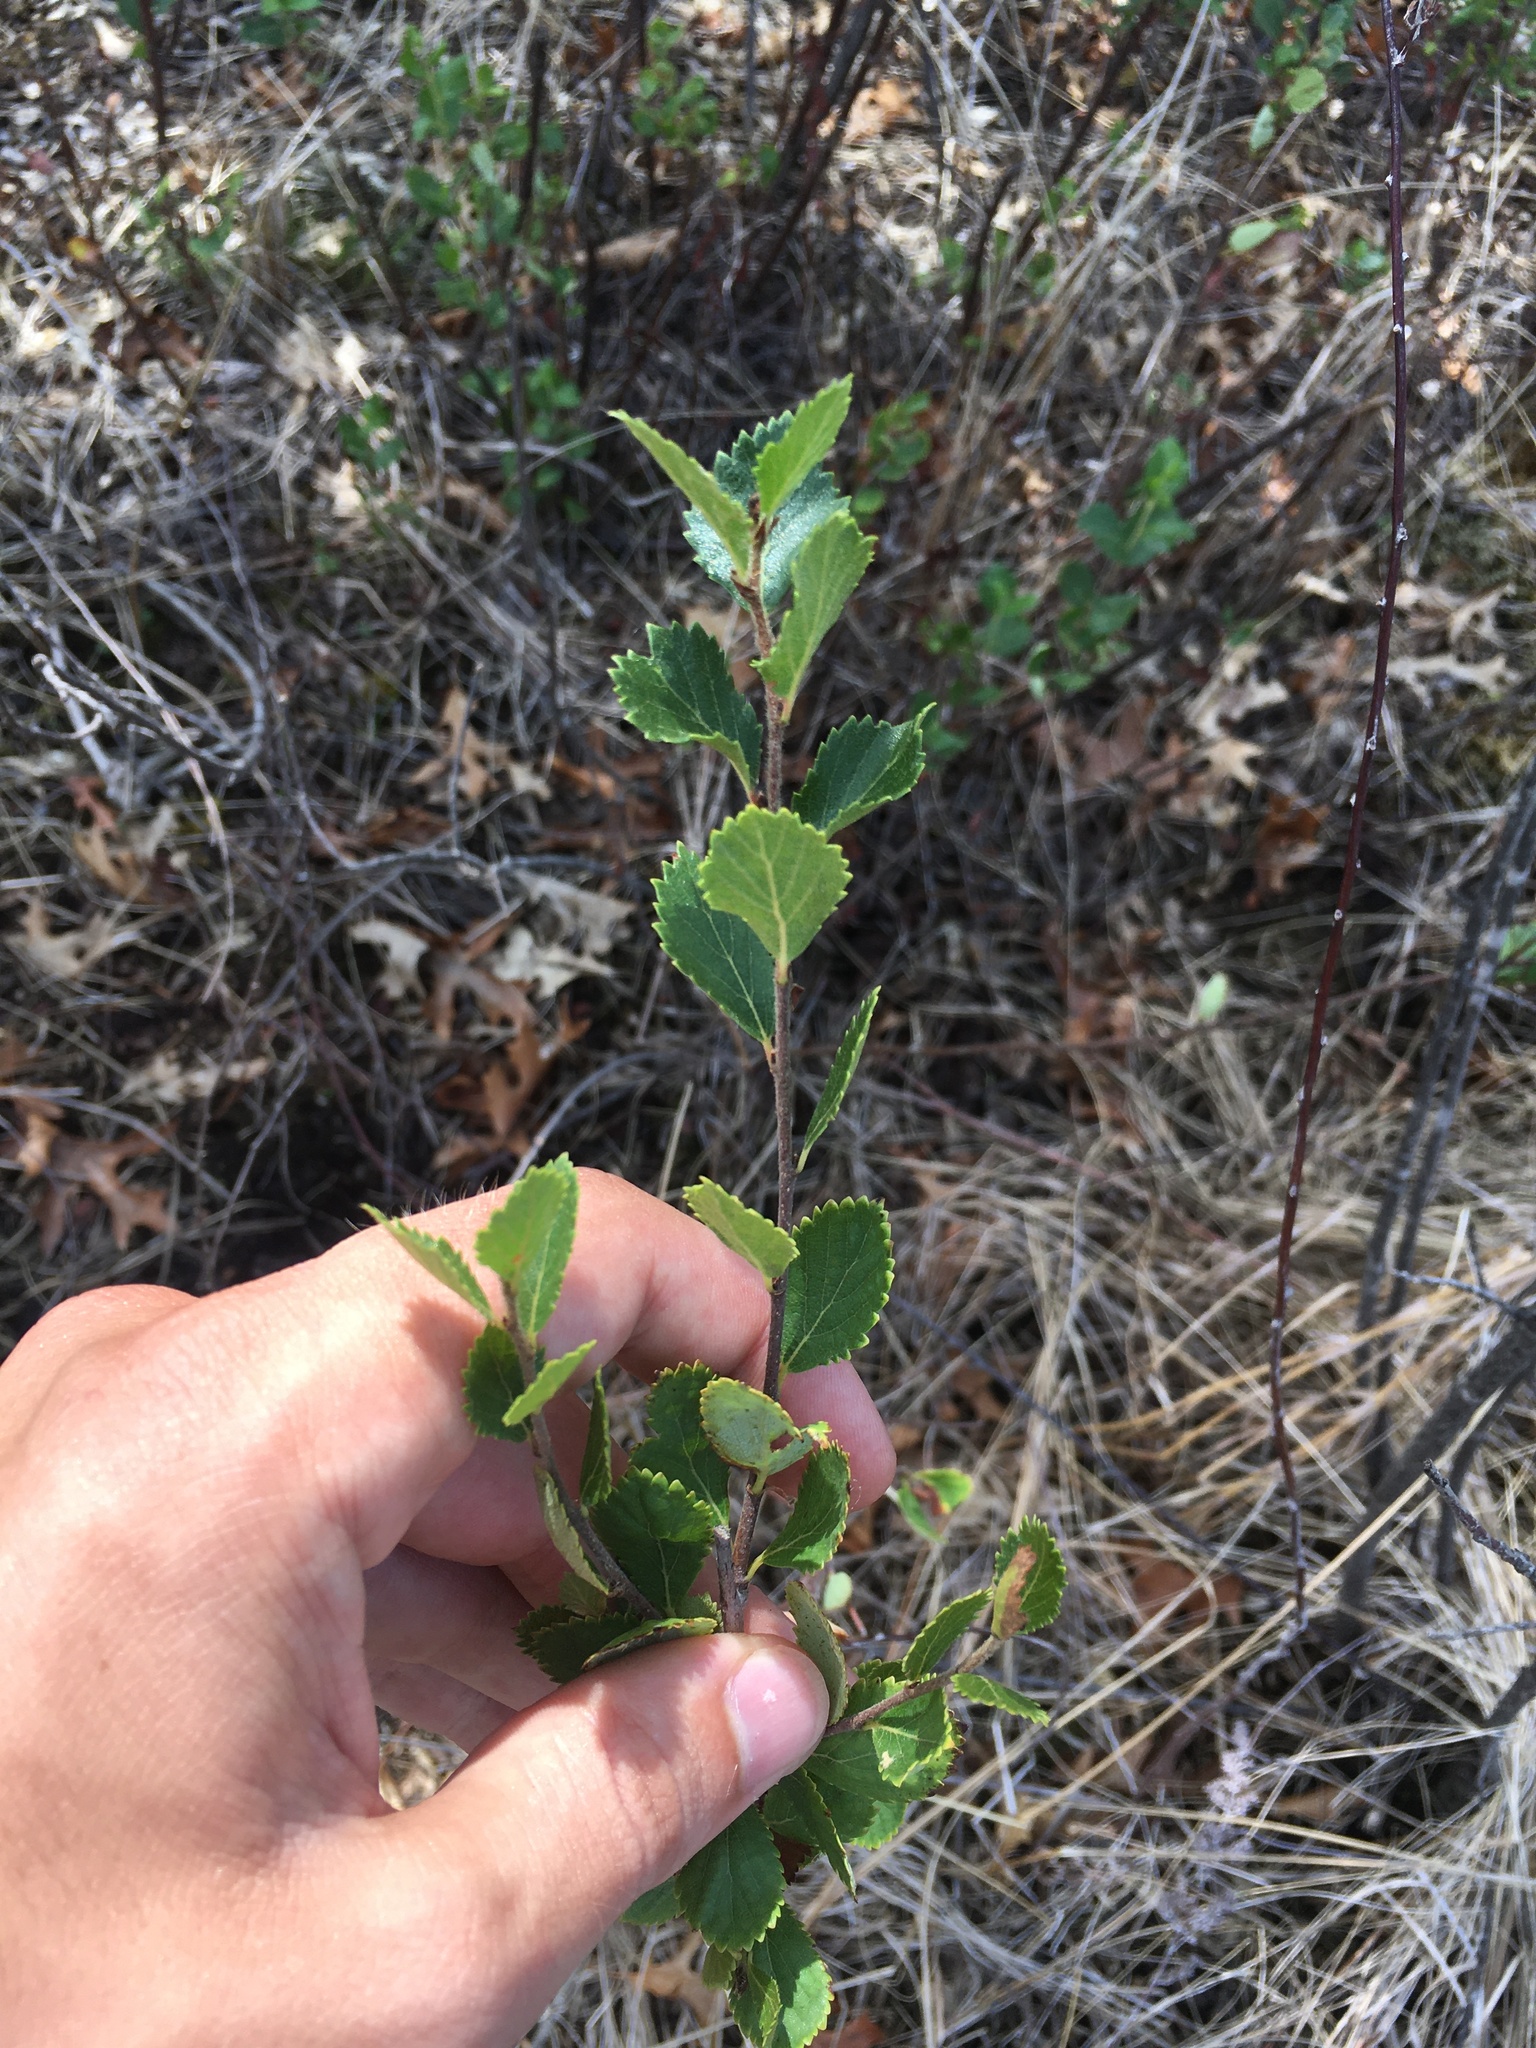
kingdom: Plantae
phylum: Tracheophyta
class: Magnoliopsida
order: Fagales
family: Betulaceae
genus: Betula
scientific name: Betula pumila
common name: Bog birch
